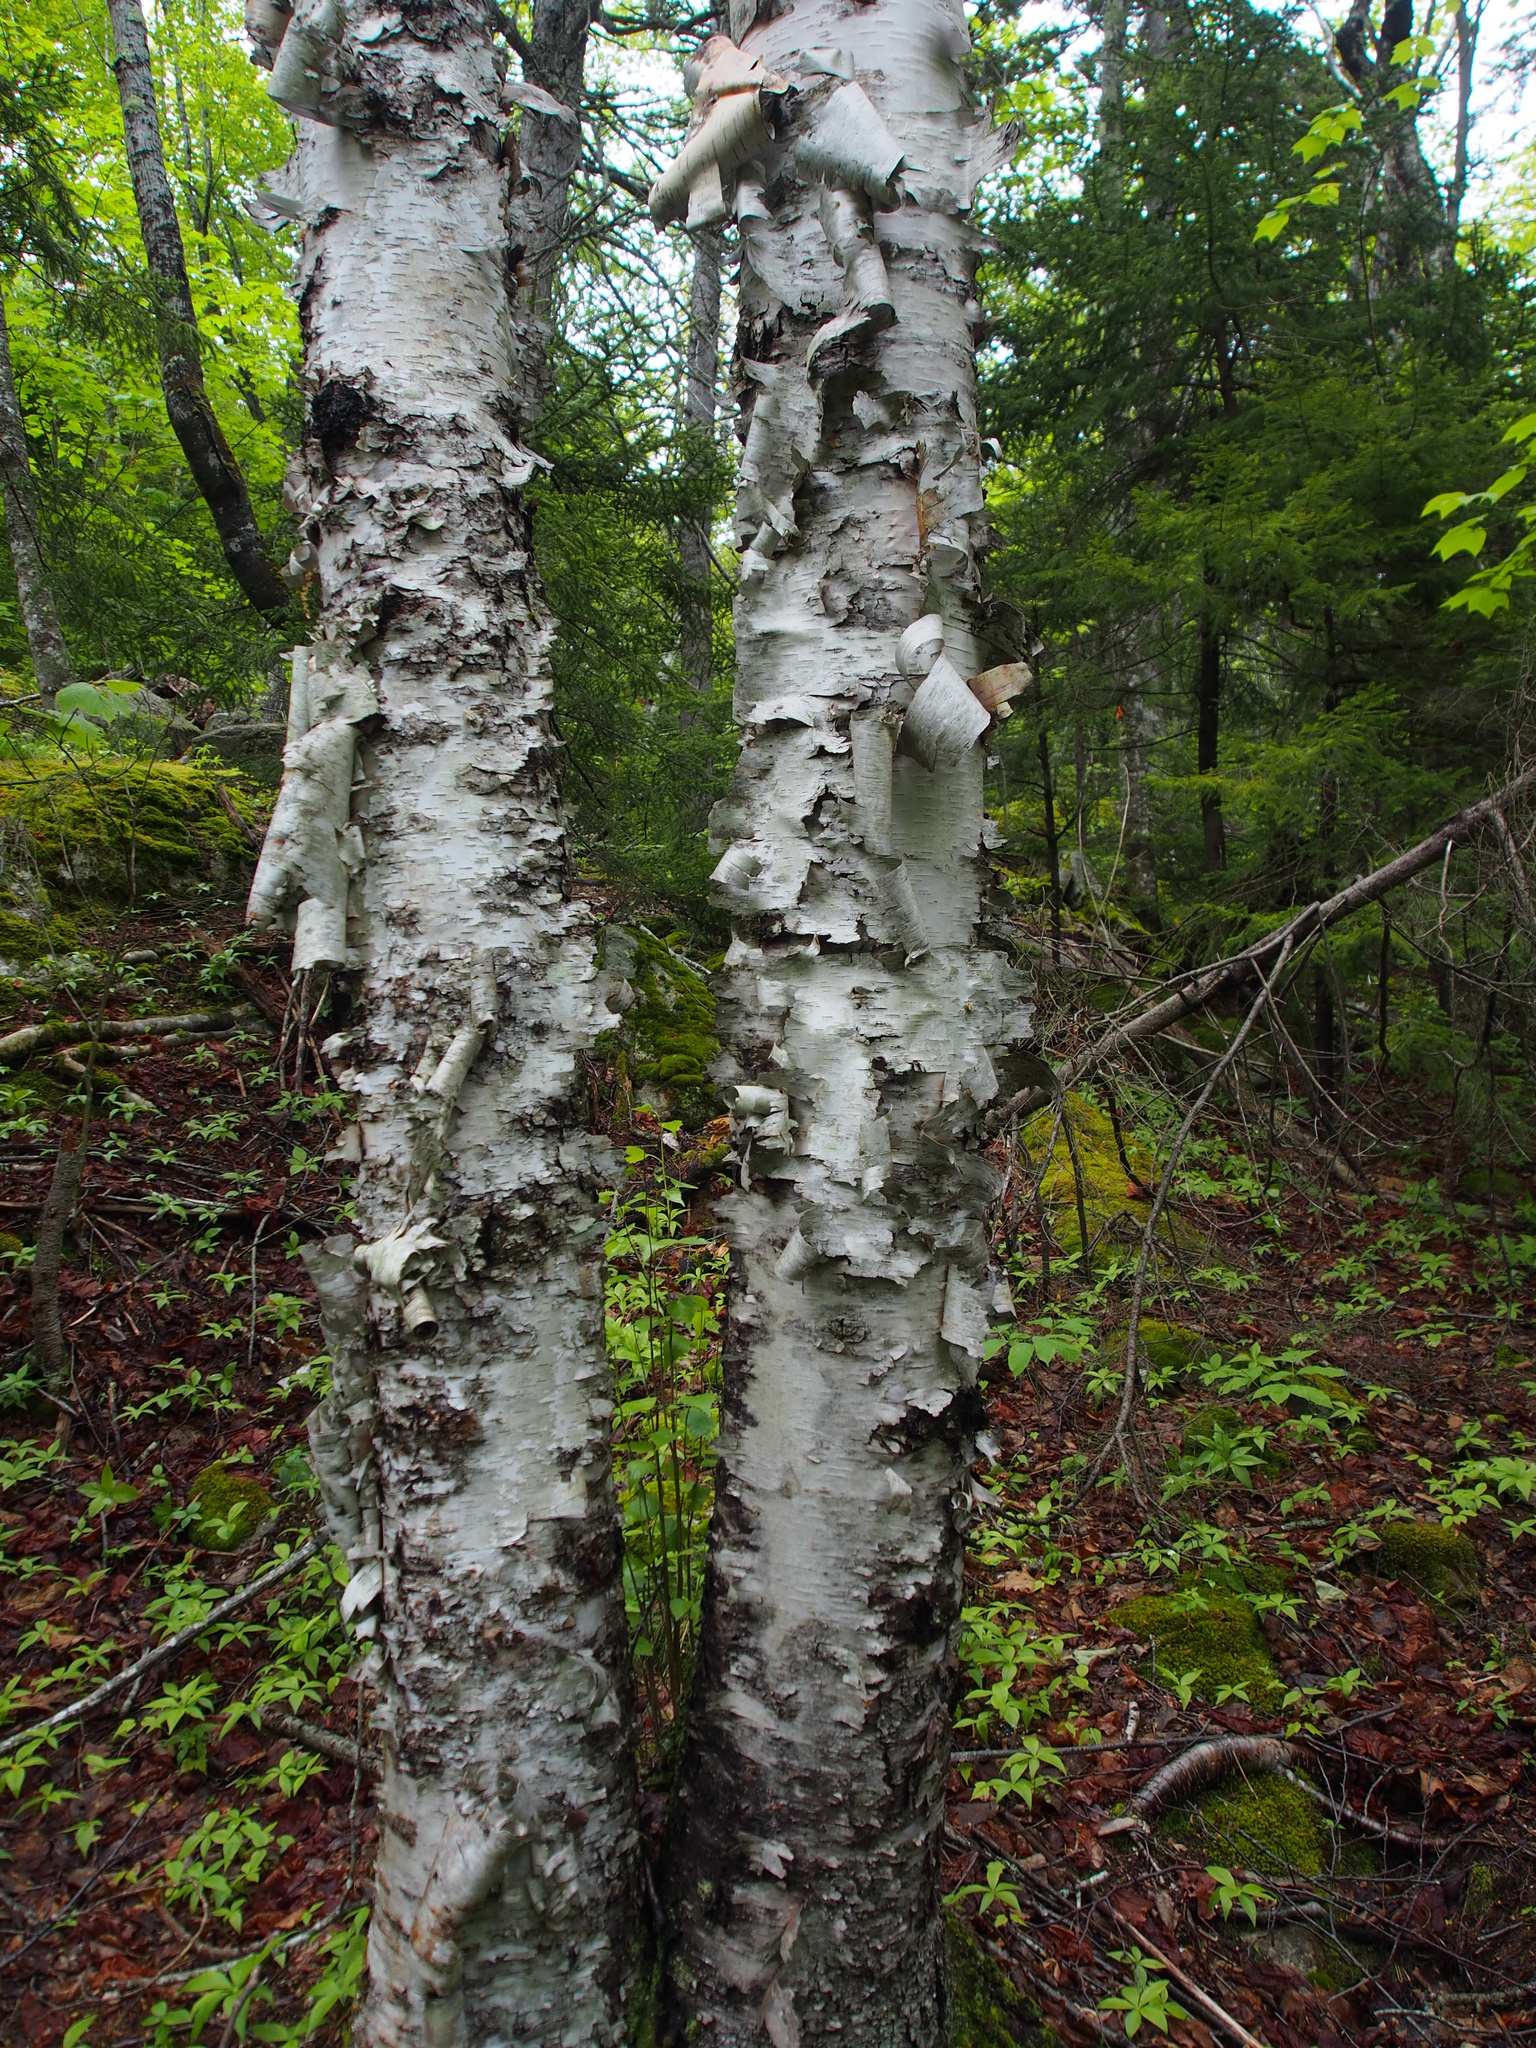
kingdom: Plantae
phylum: Tracheophyta
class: Magnoliopsida
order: Fagales
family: Betulaceae
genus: Betula
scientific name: Betula papyrifera
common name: Paper birch
